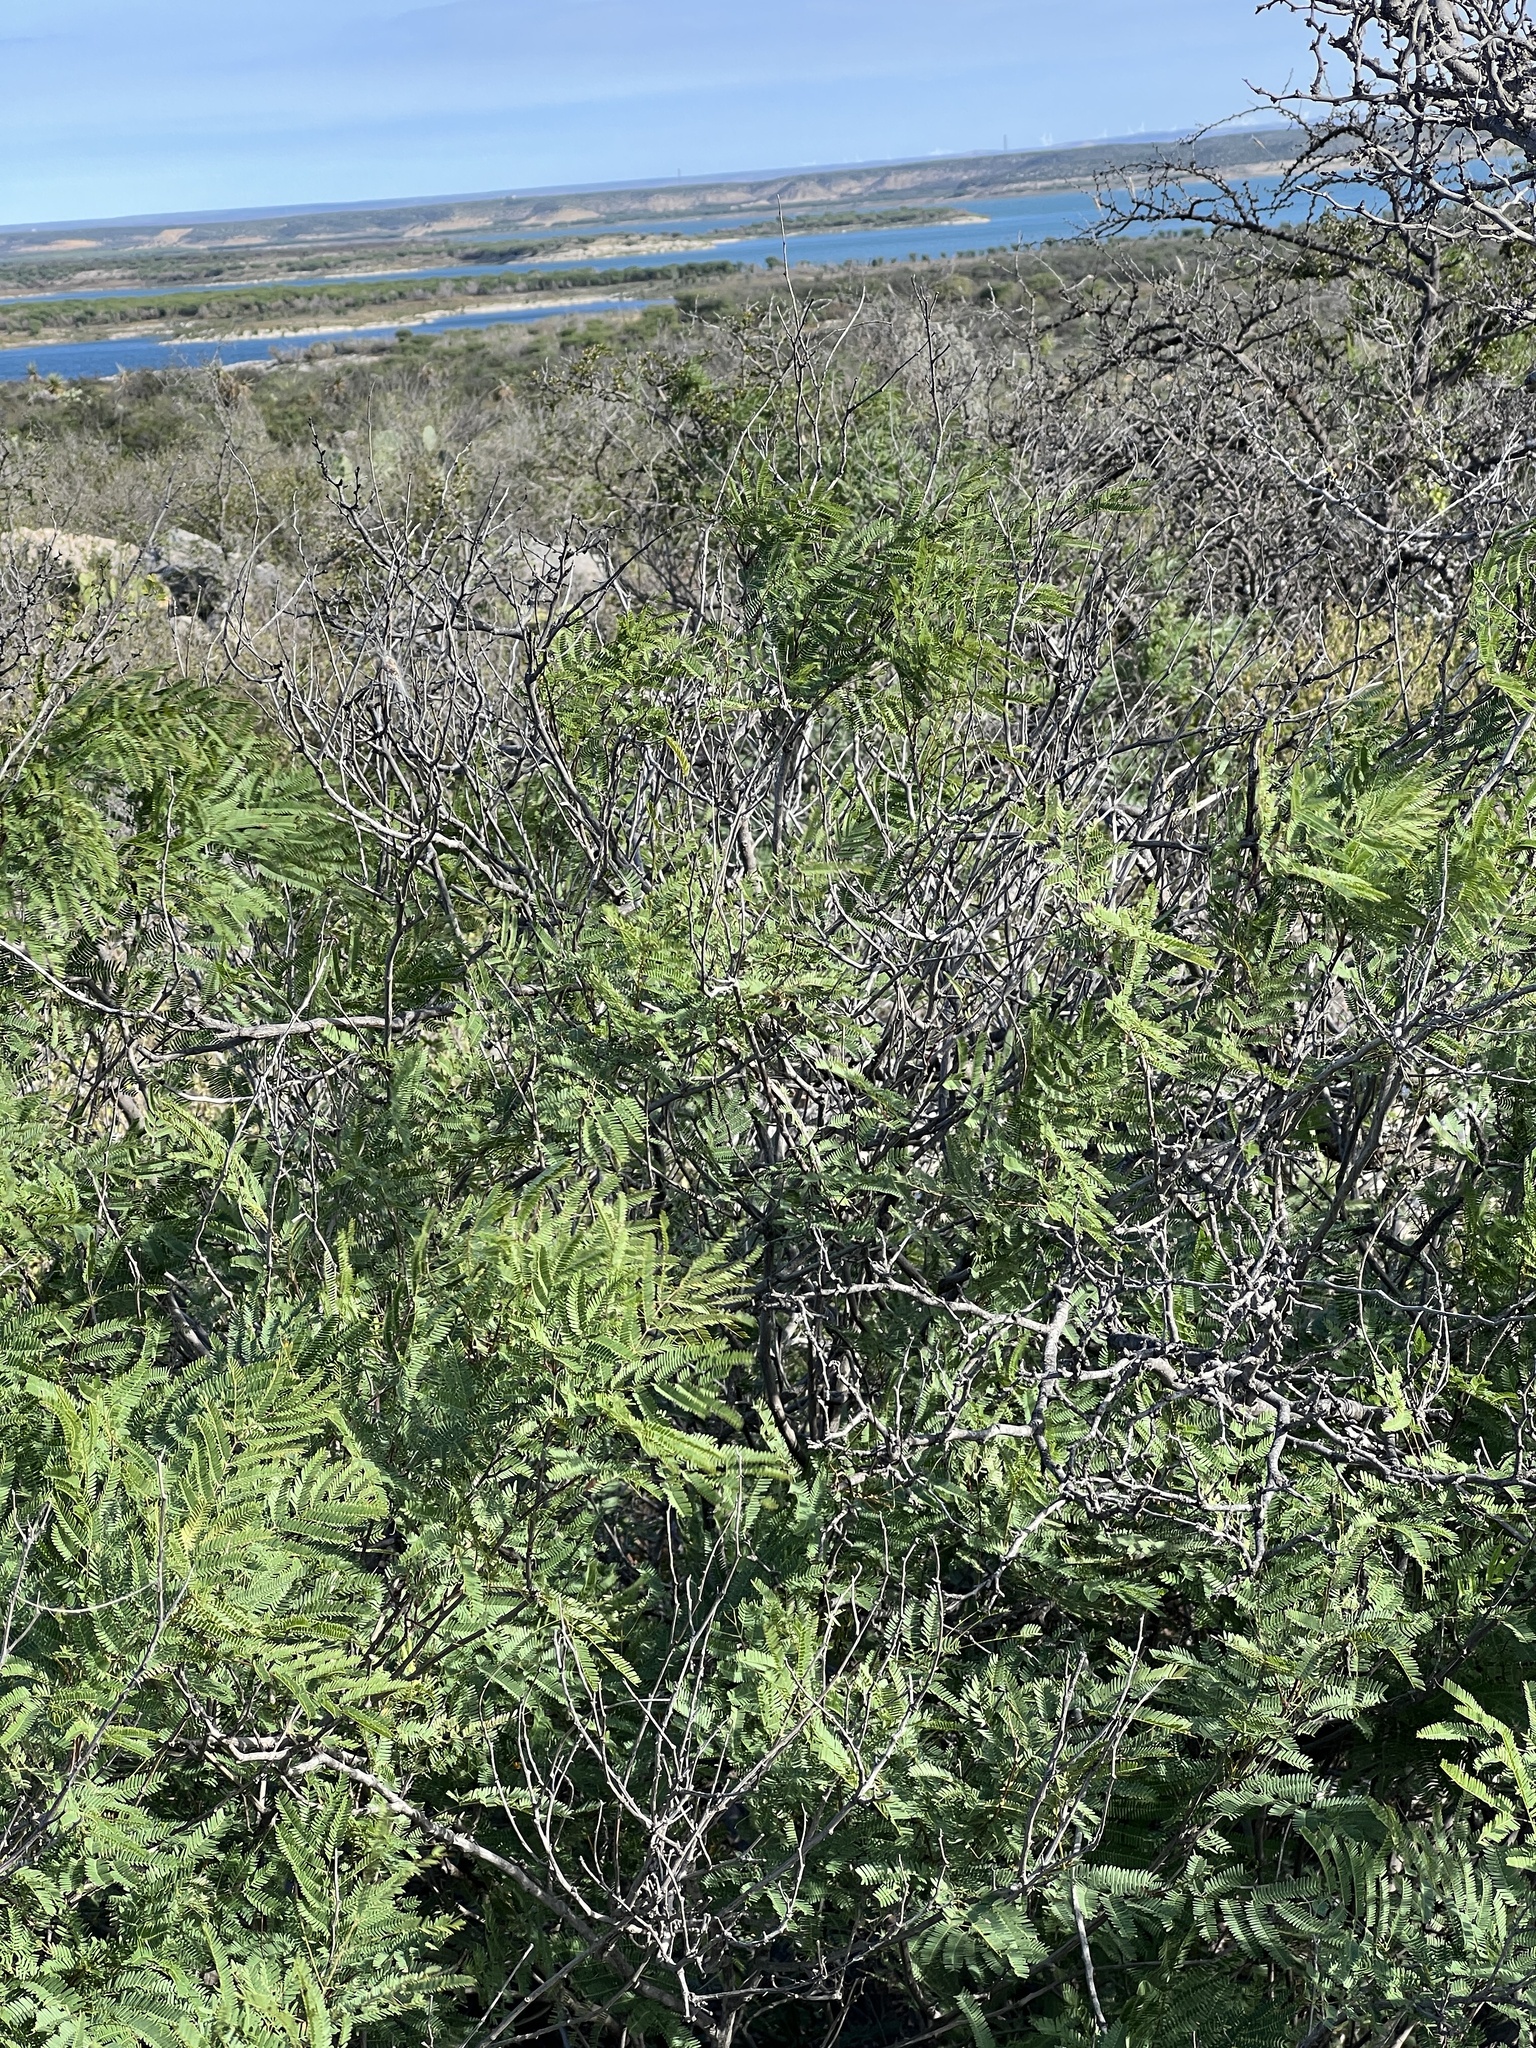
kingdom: Plantae
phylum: Tracheophyta
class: Magnoliopsida
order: Fabales
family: Fabaceae
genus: Senegalia
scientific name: Senegalia berlandieri
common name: Berlandier acacia
